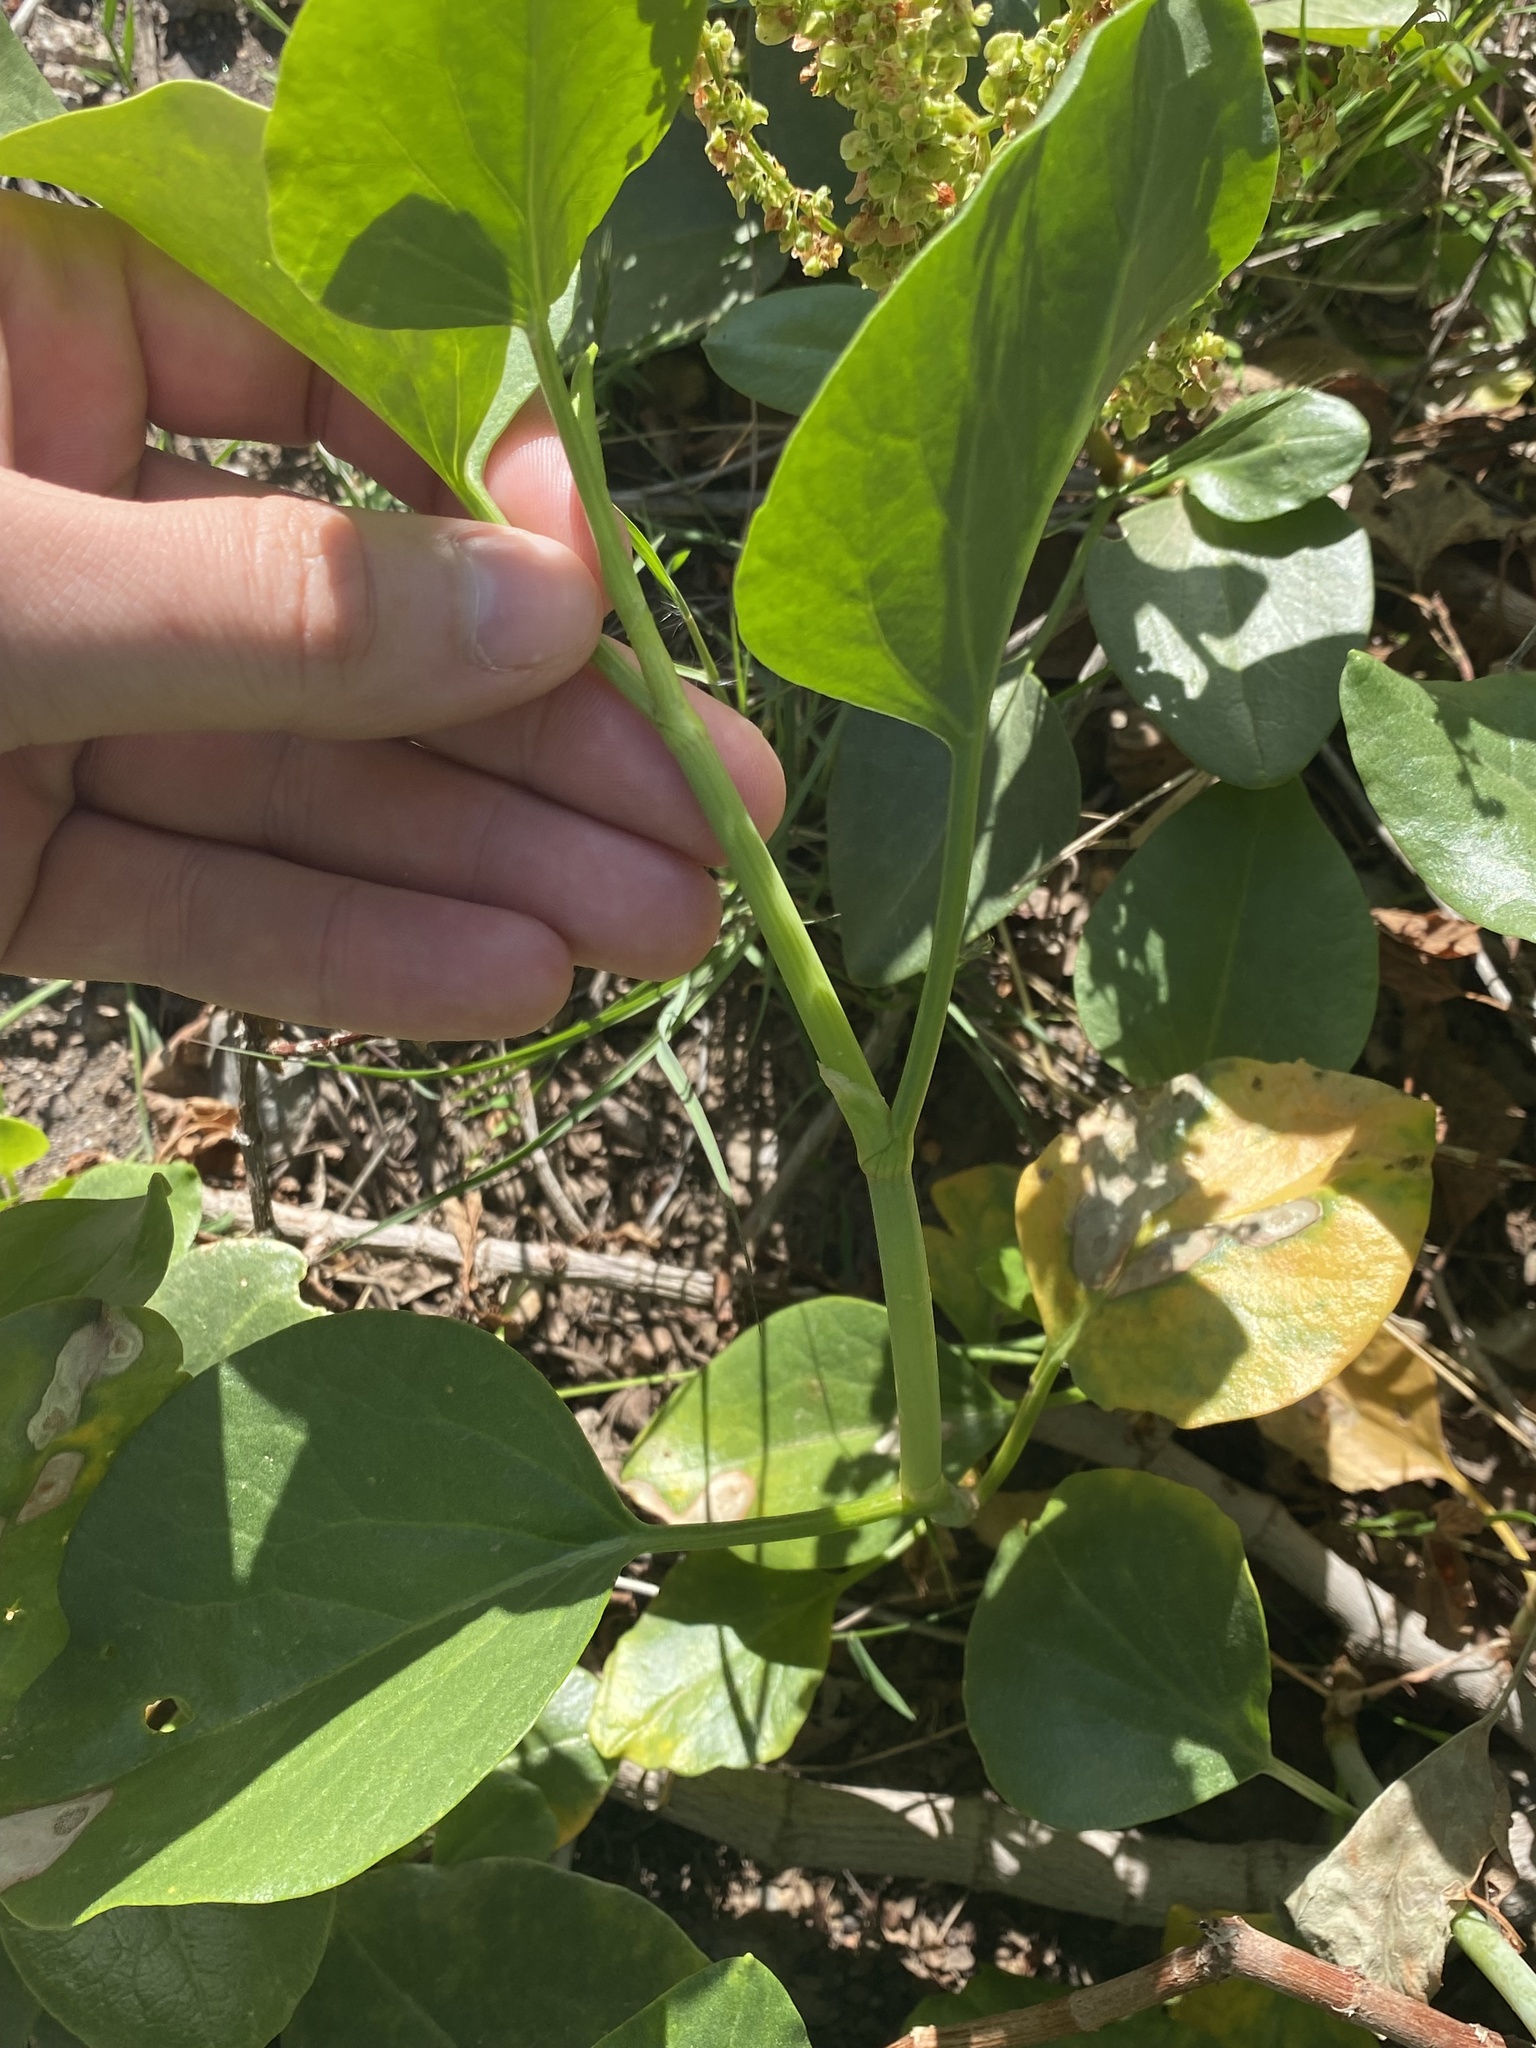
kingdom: Plantae
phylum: Tracheophyta
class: Magnoliopsida
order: Caryophyllales
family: Polygonaceae
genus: Rumex
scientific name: Rumex lunaria
